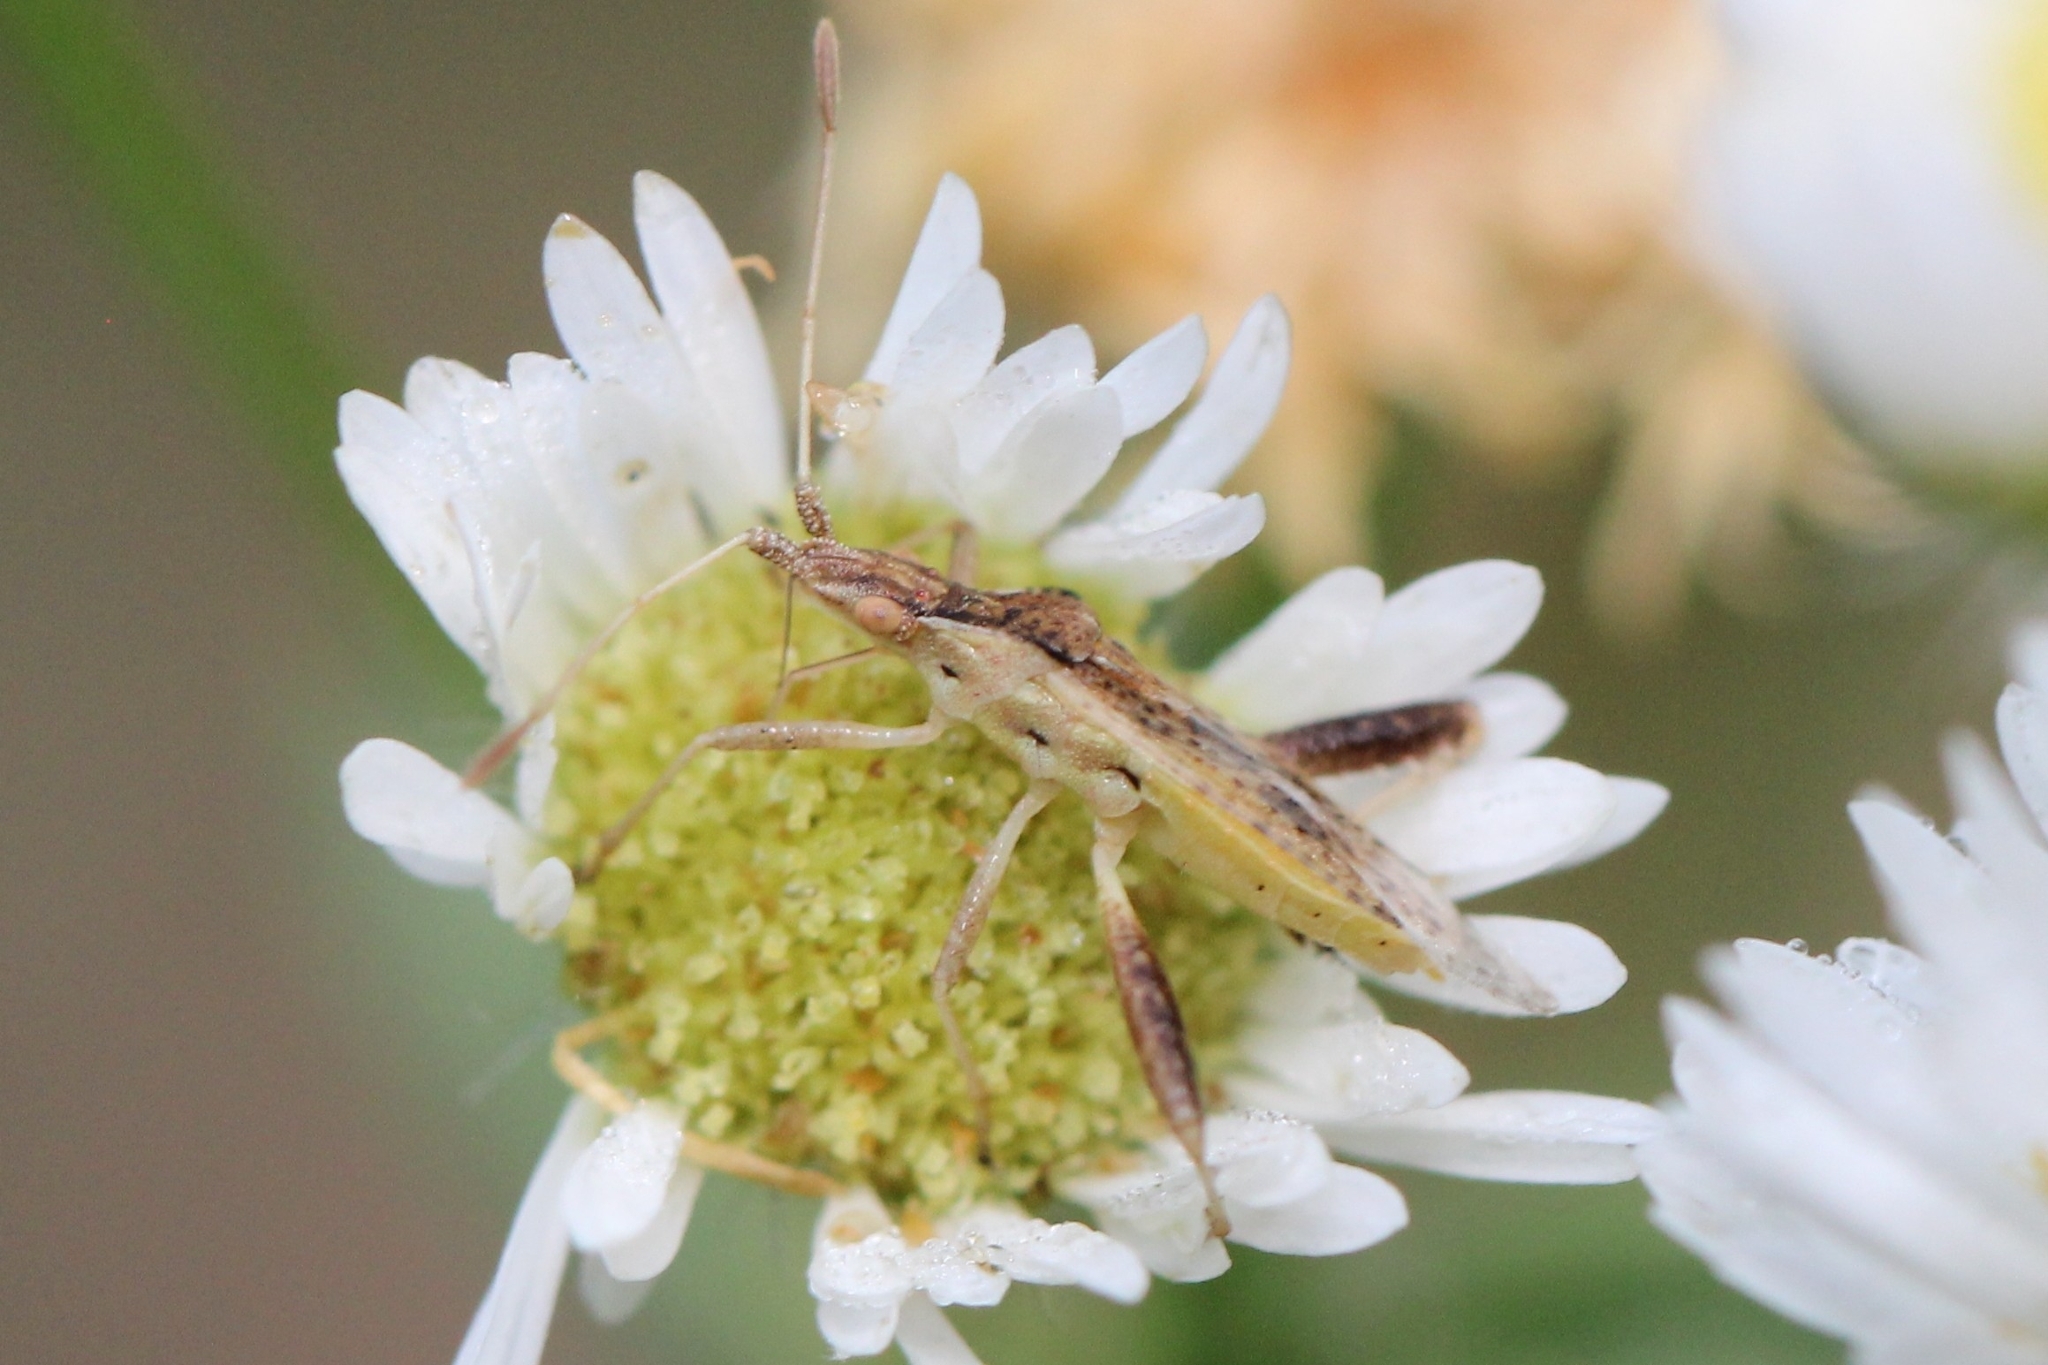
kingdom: Animalia
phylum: Arthropoda
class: Insecta
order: Hemiptera
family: Rhopalidae
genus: Harmostes
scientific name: Harmostes reflexulus
